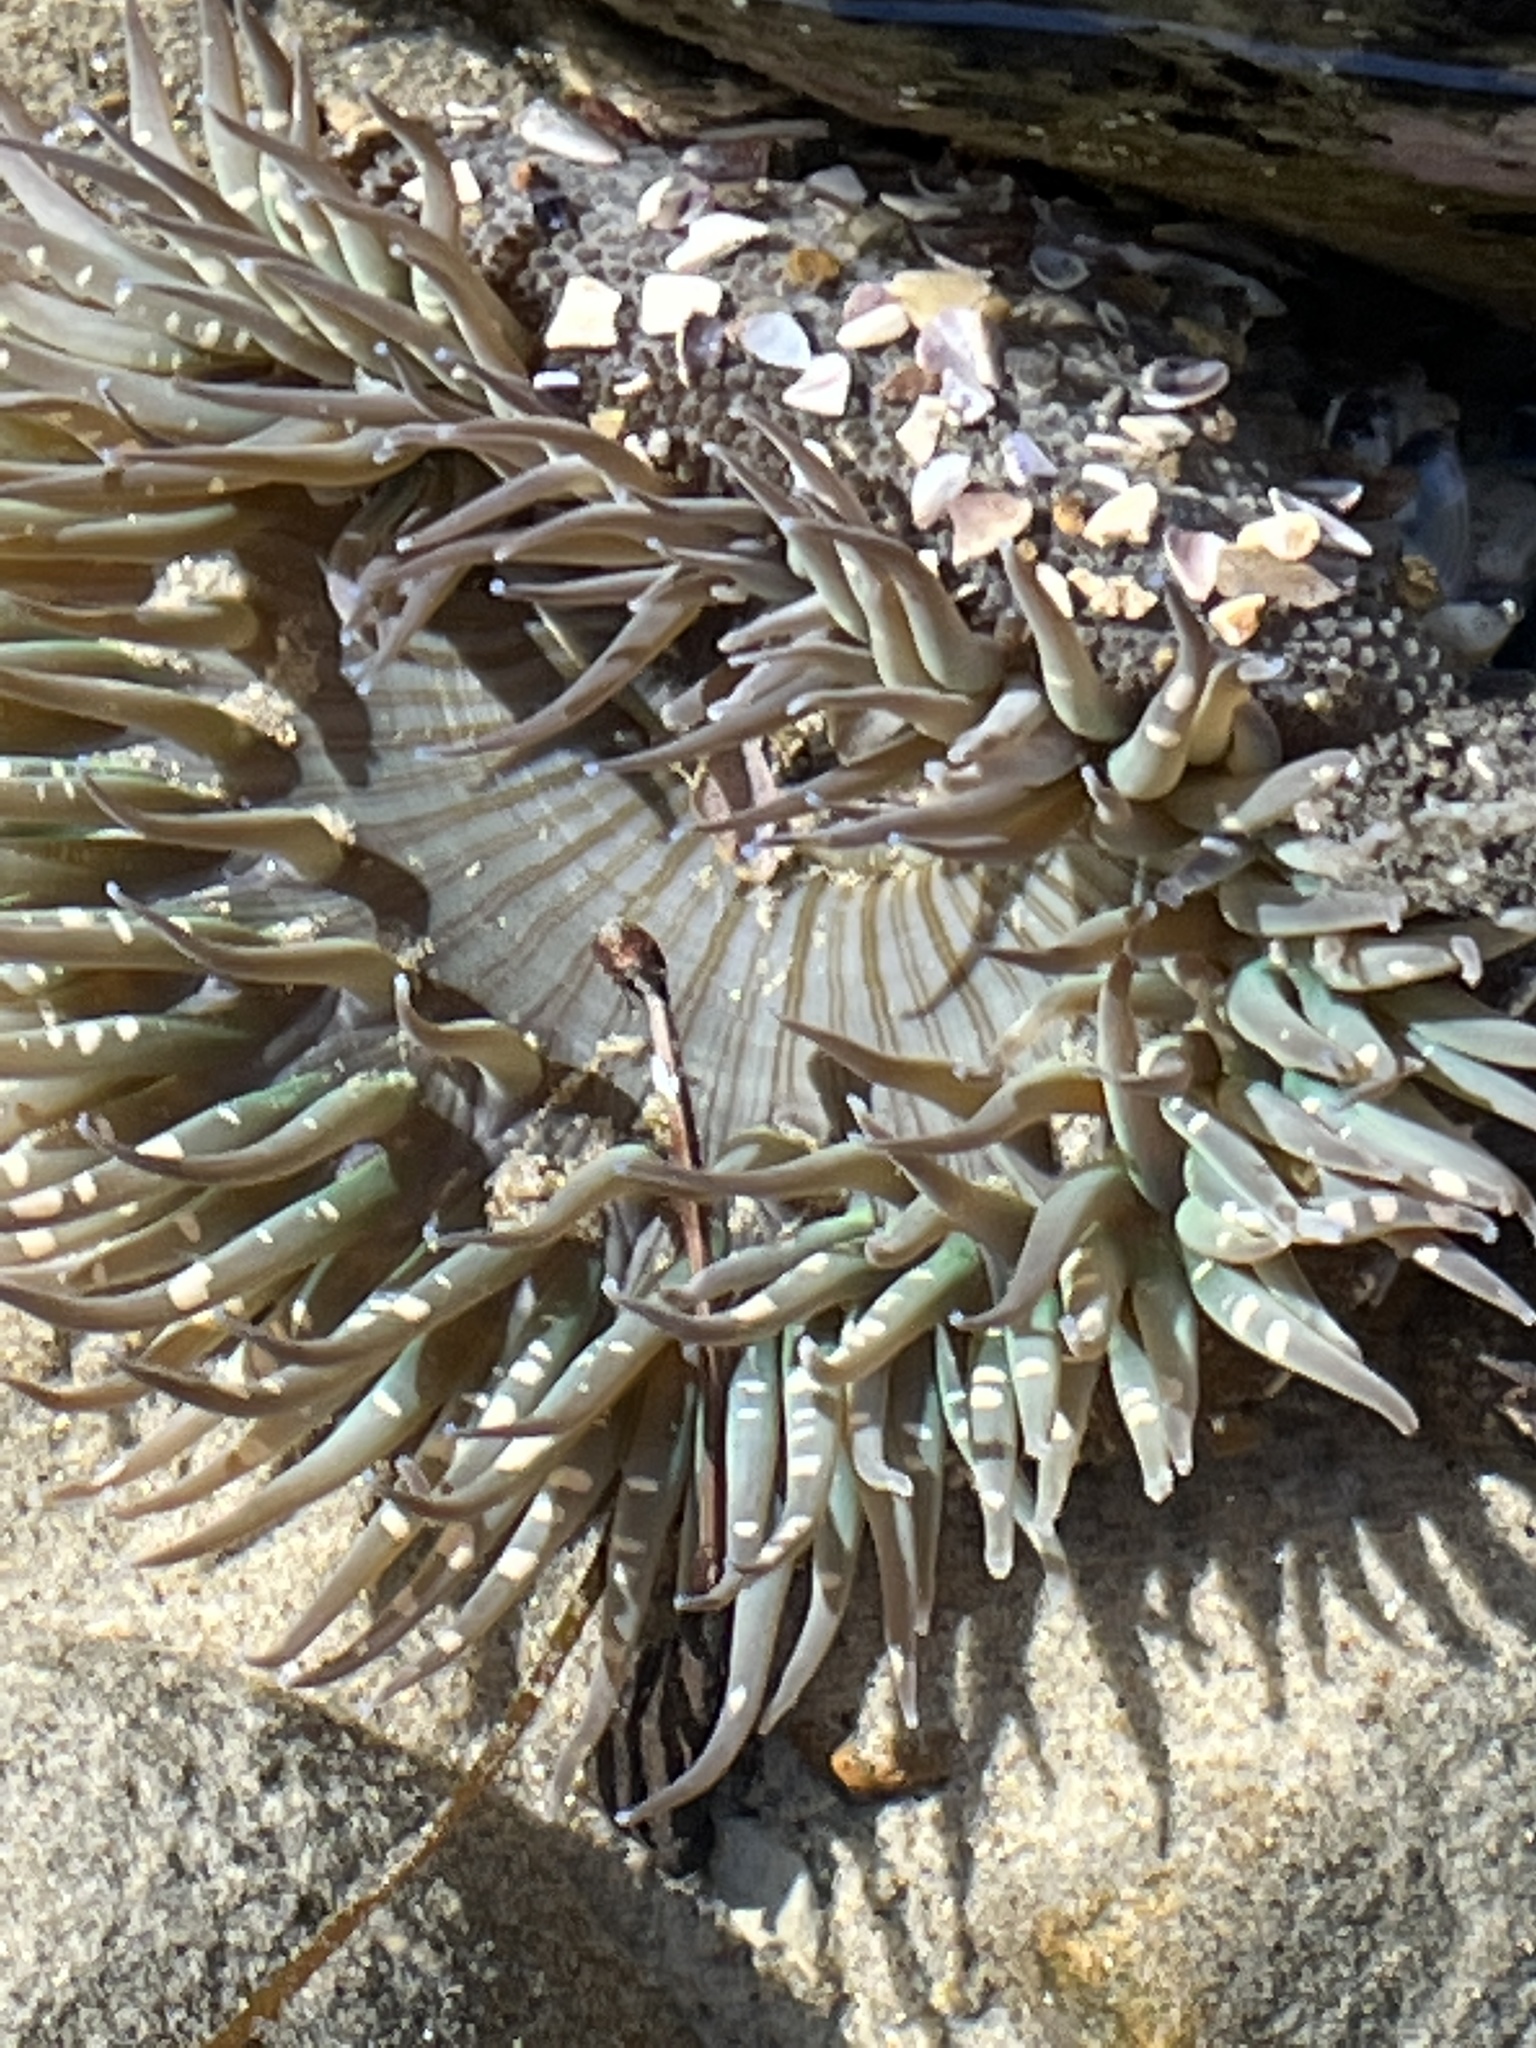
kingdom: Animalia
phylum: Cnidaria
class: Anthozoa
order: Actiniaria
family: Actiniidae
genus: Anthopleura
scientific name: Anthopleura sola
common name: Sun anemone
